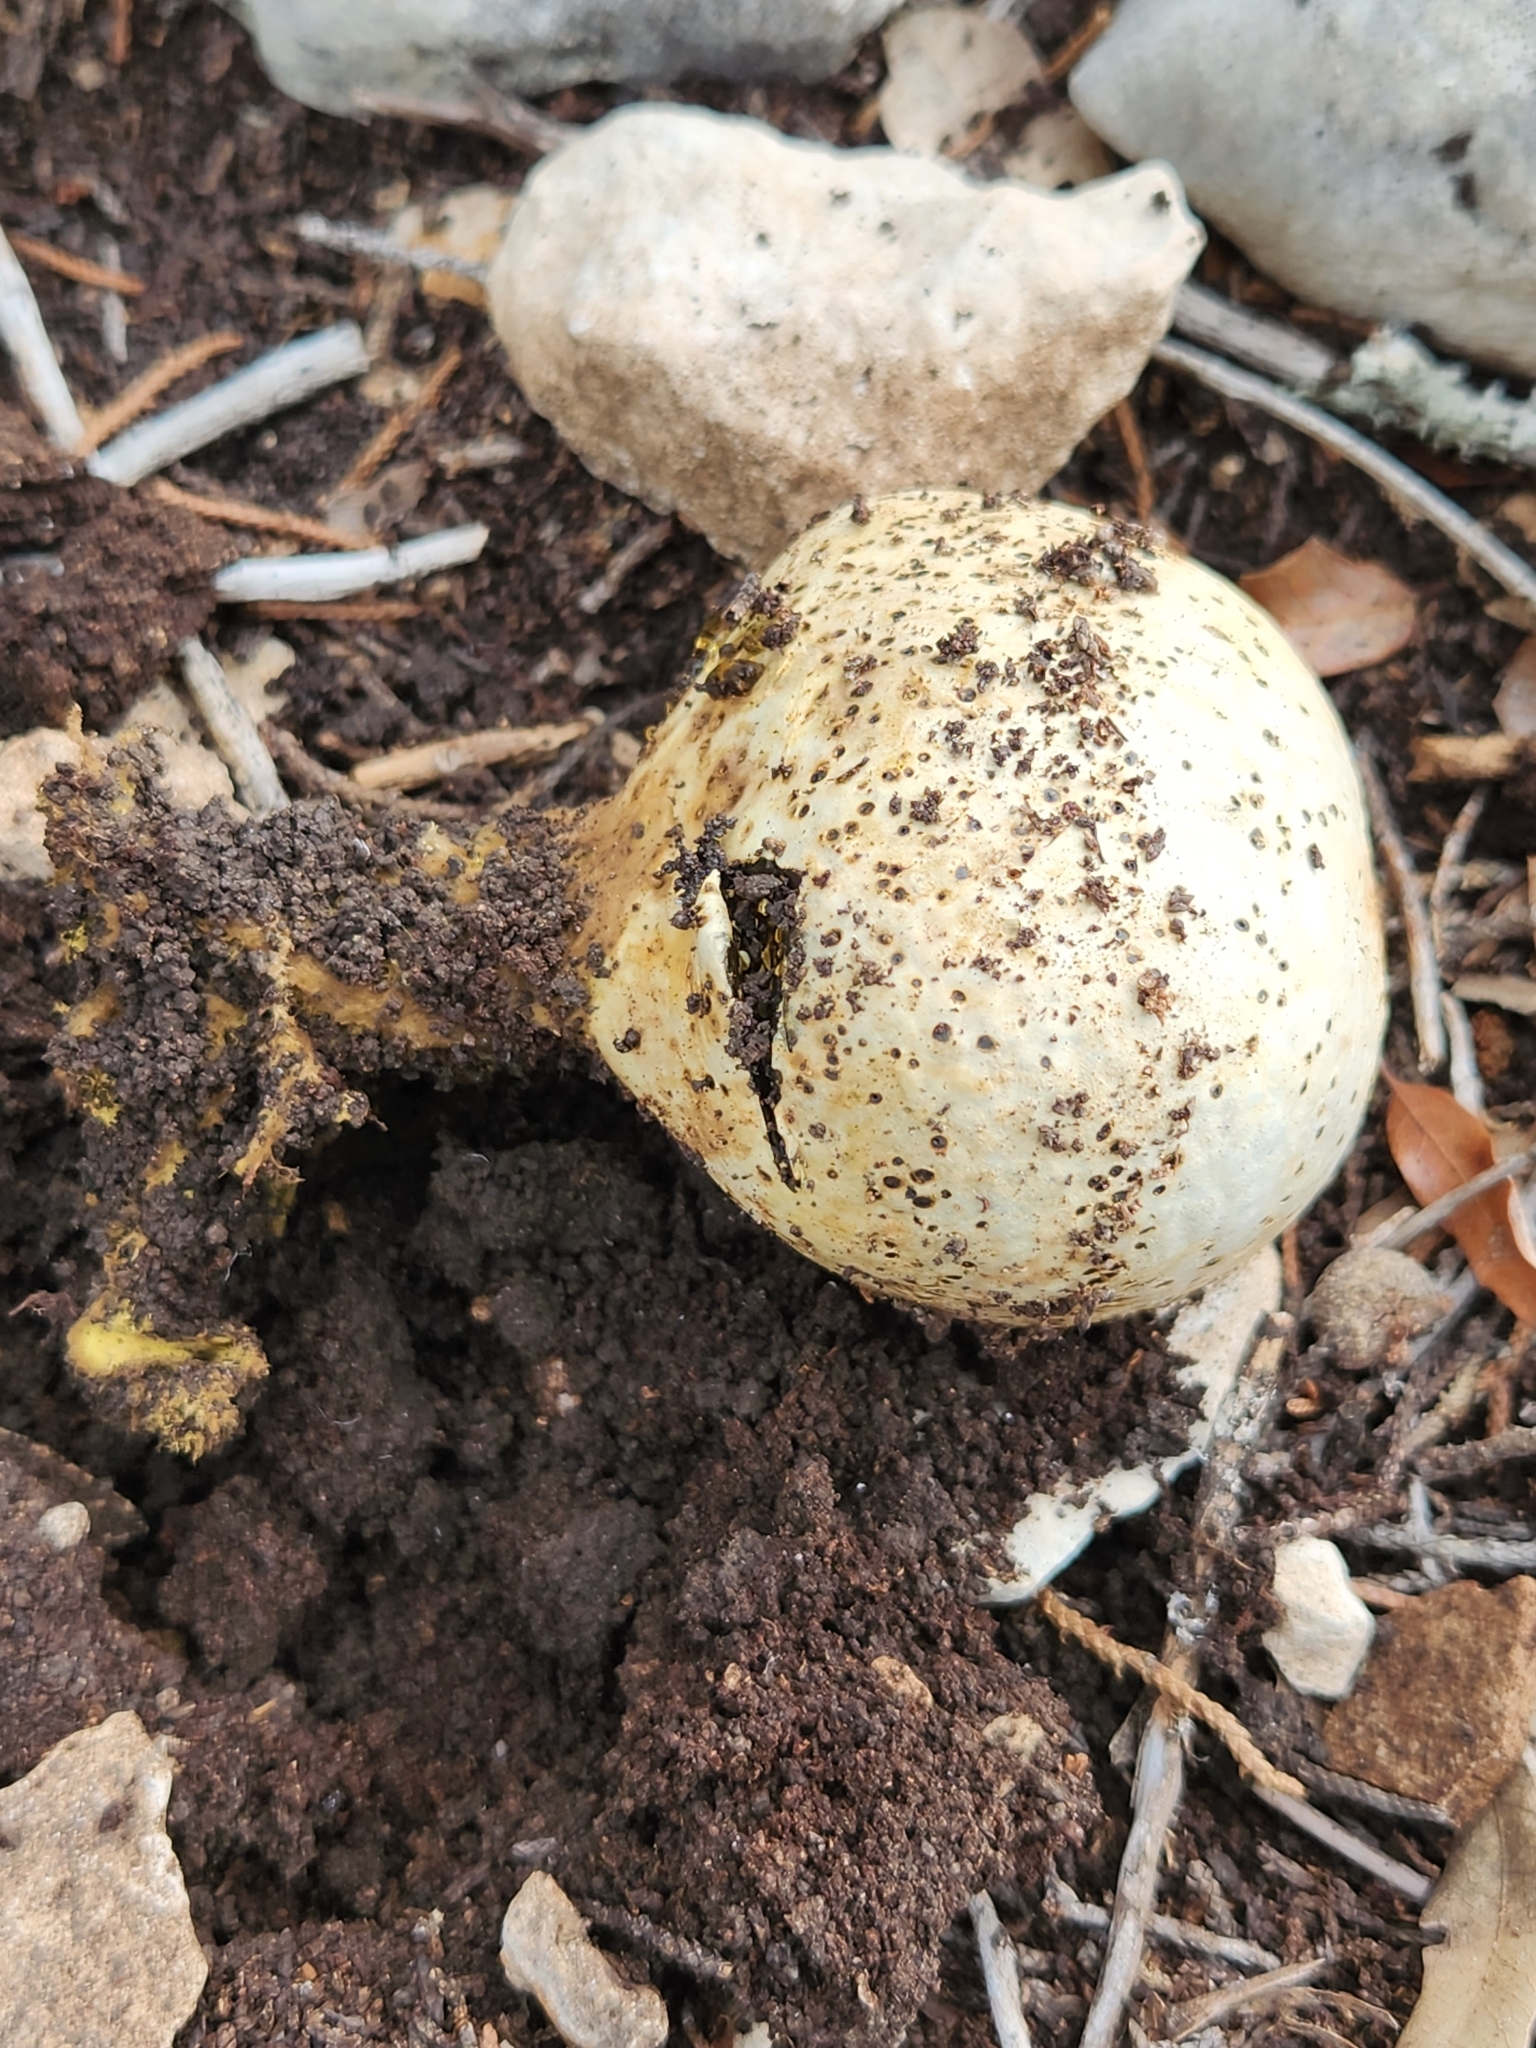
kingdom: Fungi
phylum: Basidiomycota
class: Agaricomycetes
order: Boletales
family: Sclerodermataceae
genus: Pisolithus
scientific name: Pisolithus arenarius
